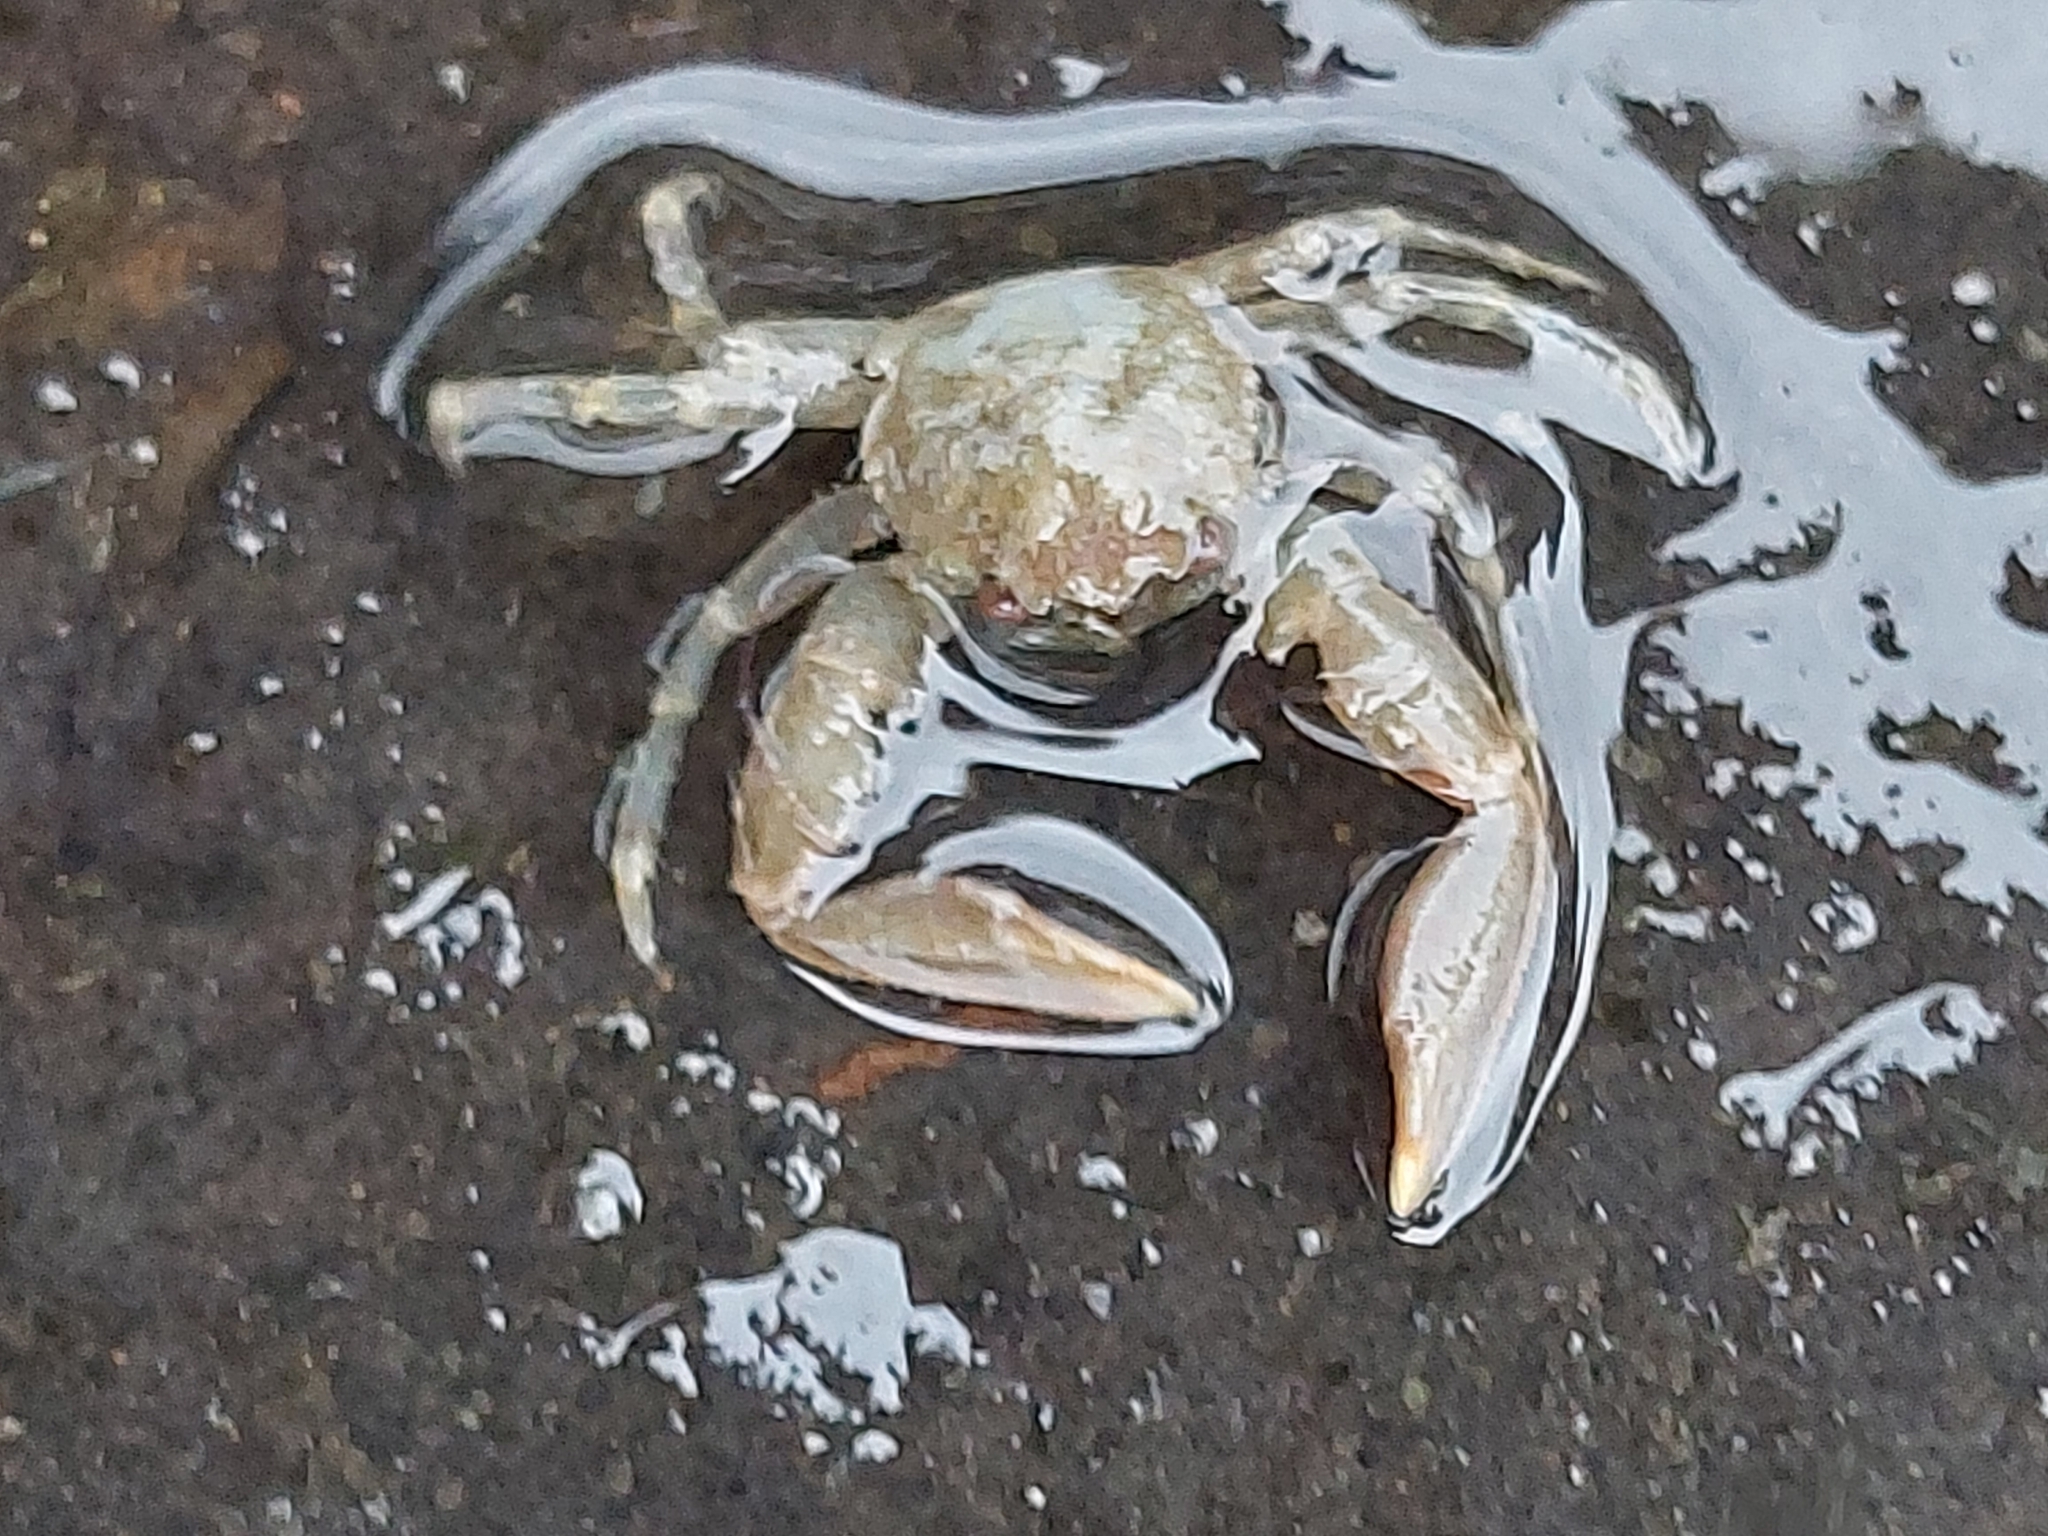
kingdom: Animalia
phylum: Arthropoda
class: Malacostraca
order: Decapoda
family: Porcellanidae
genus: Pisidia
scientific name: Pisidia longicornis
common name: Long clawed porcelain crab
